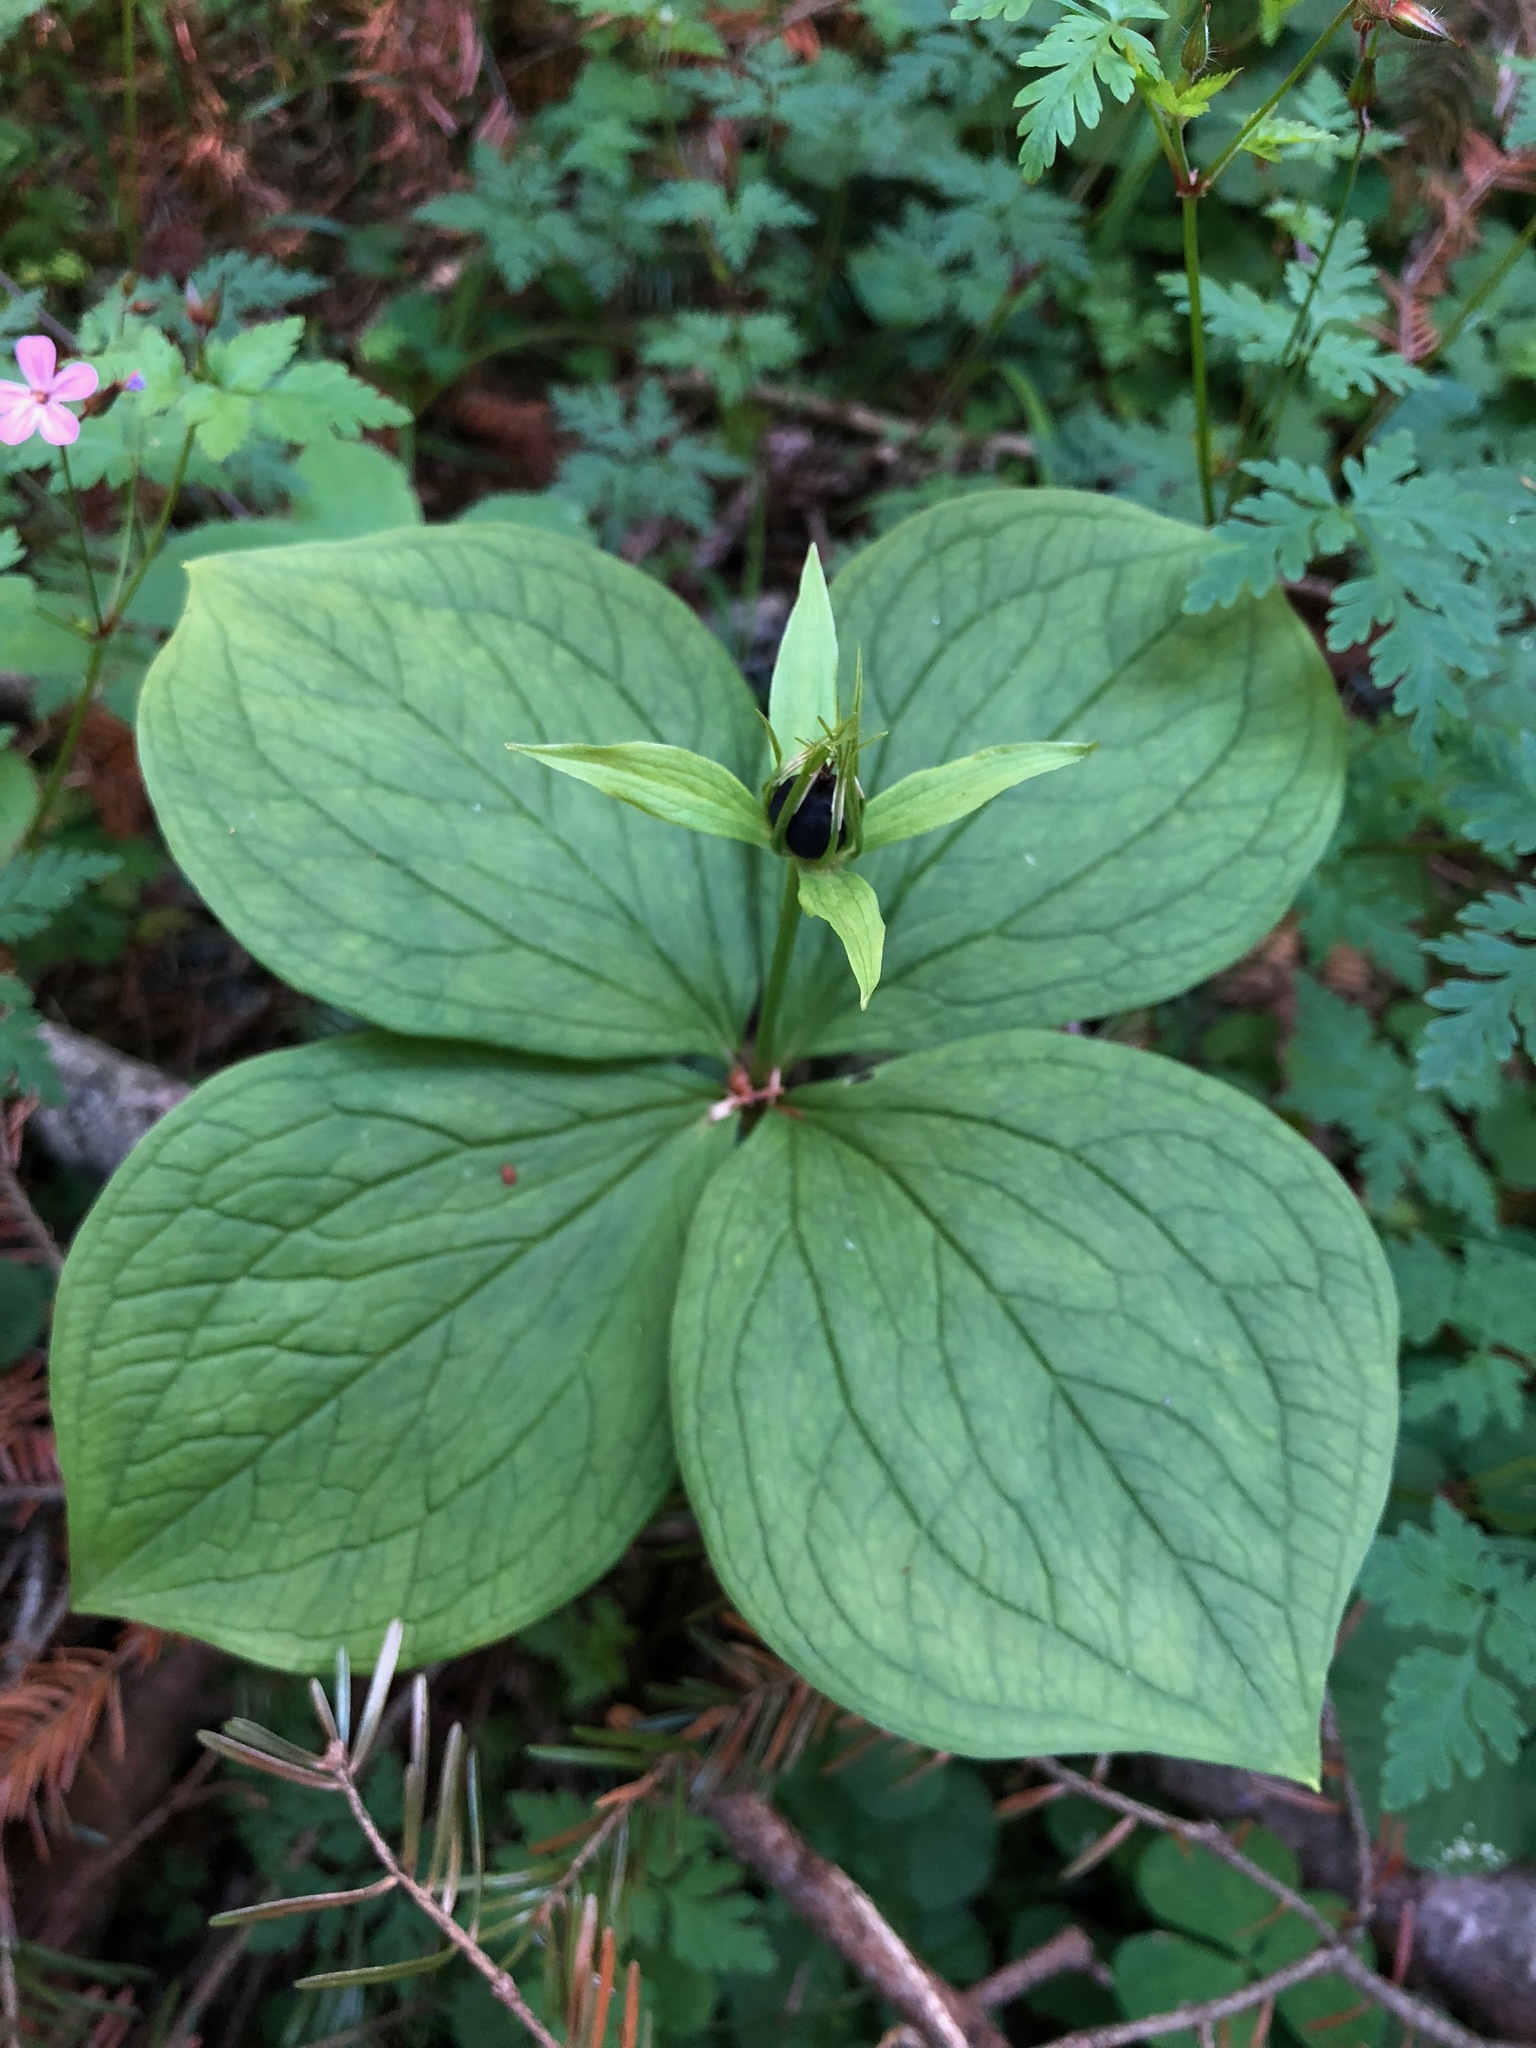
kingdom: Plantae
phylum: Tracheophyta
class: Liliopsida
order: Liliales
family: Melanthiaceae
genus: Paris
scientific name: Paris quadrifolia
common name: Herb-paris
